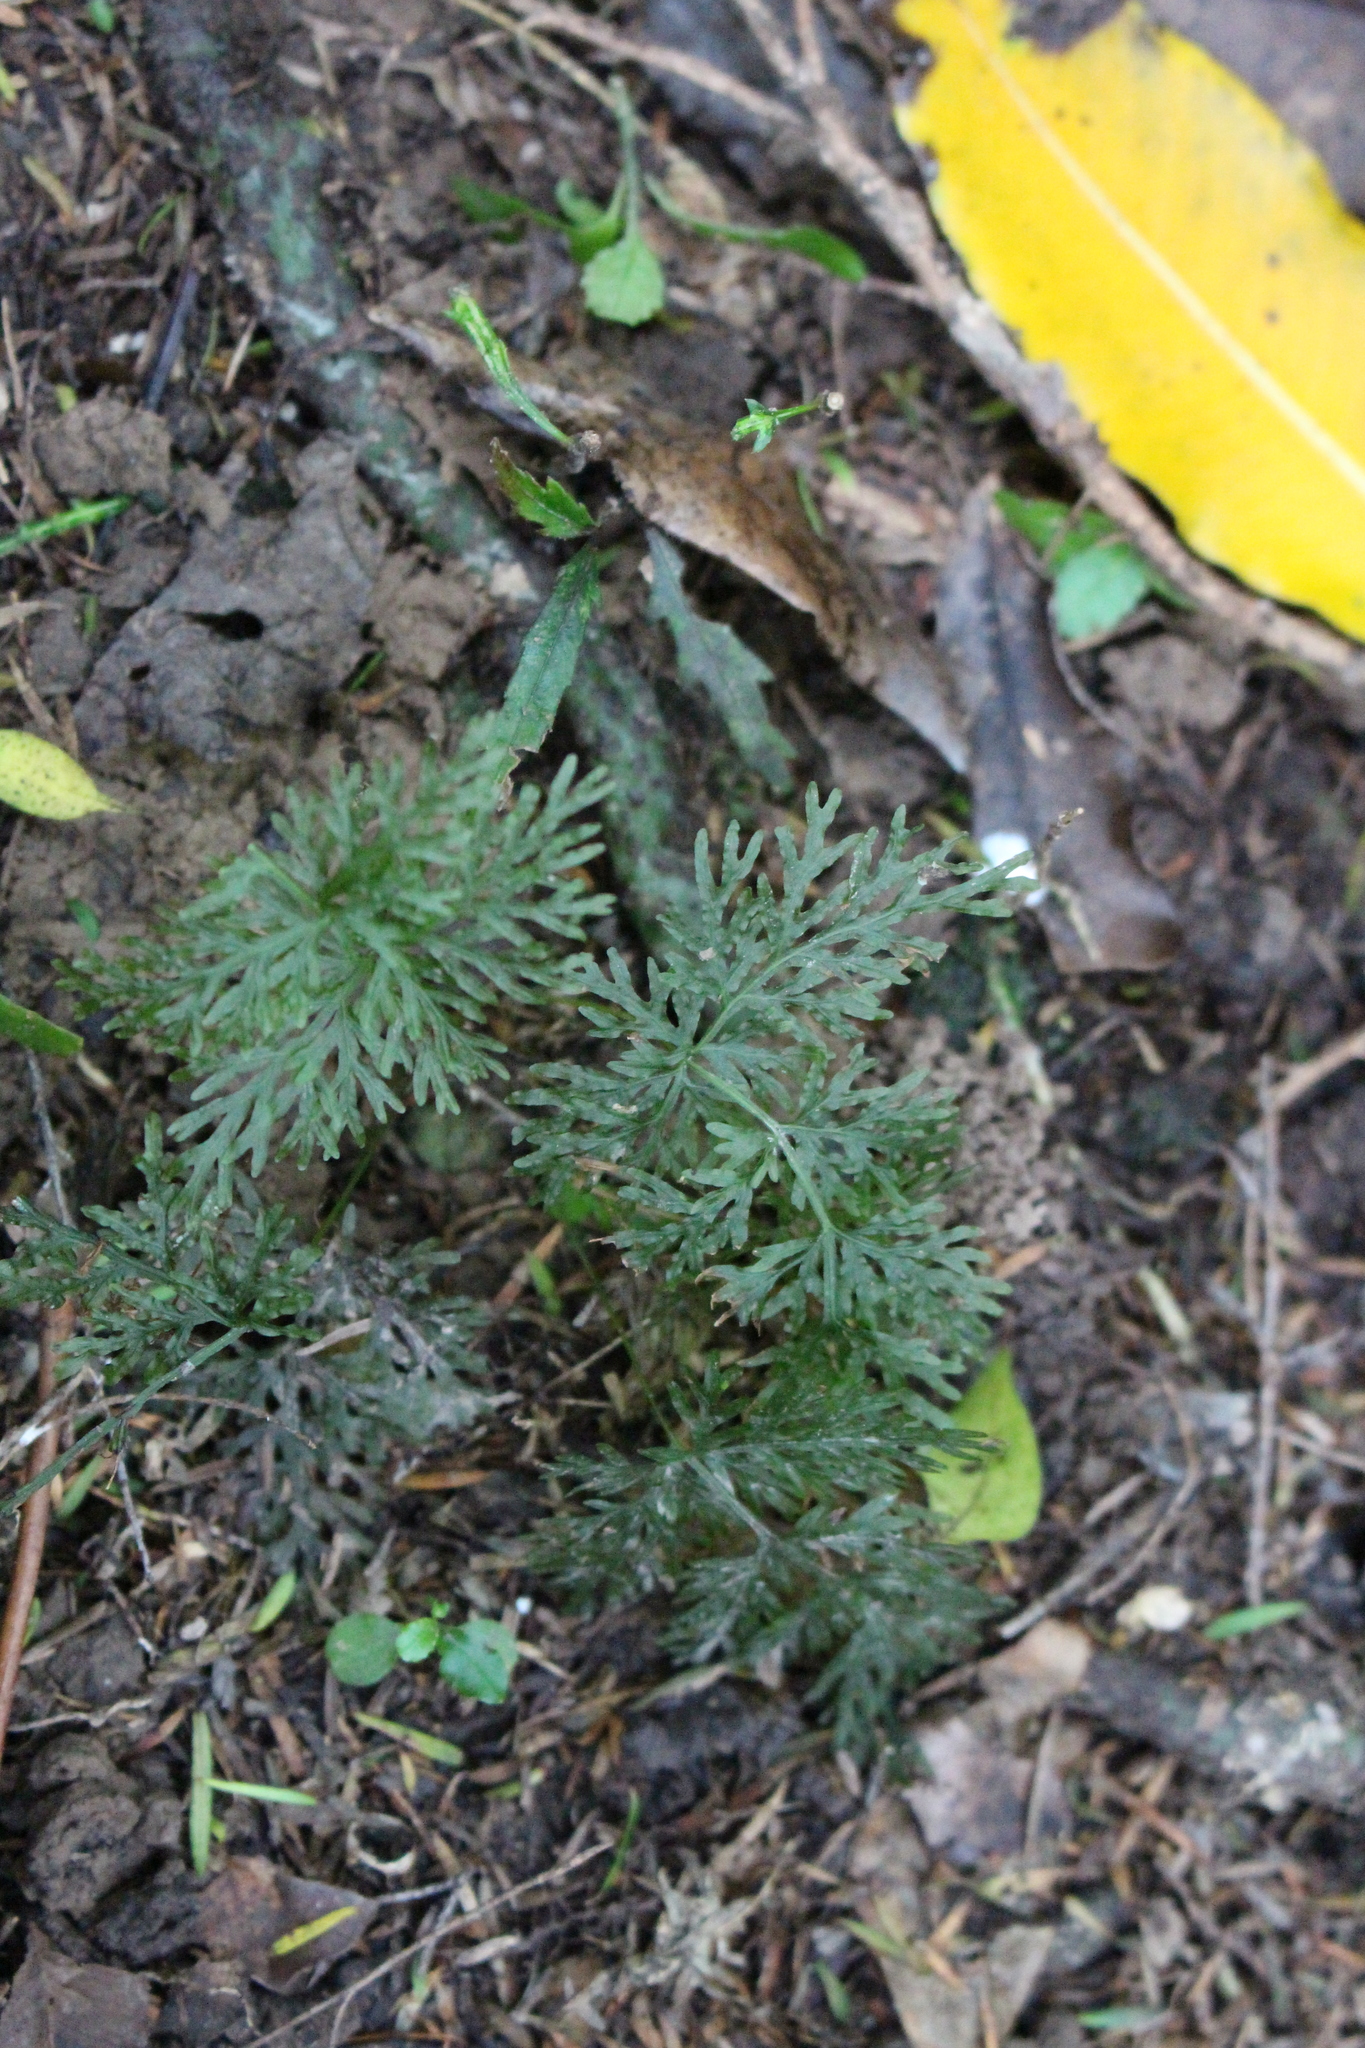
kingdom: Plantae
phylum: Tracheophyta
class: Polypodiopsida
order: Hymenophyllales
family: Hymenophyllaceae
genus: Hymenophyllum
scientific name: Hymenophyllum demissum
